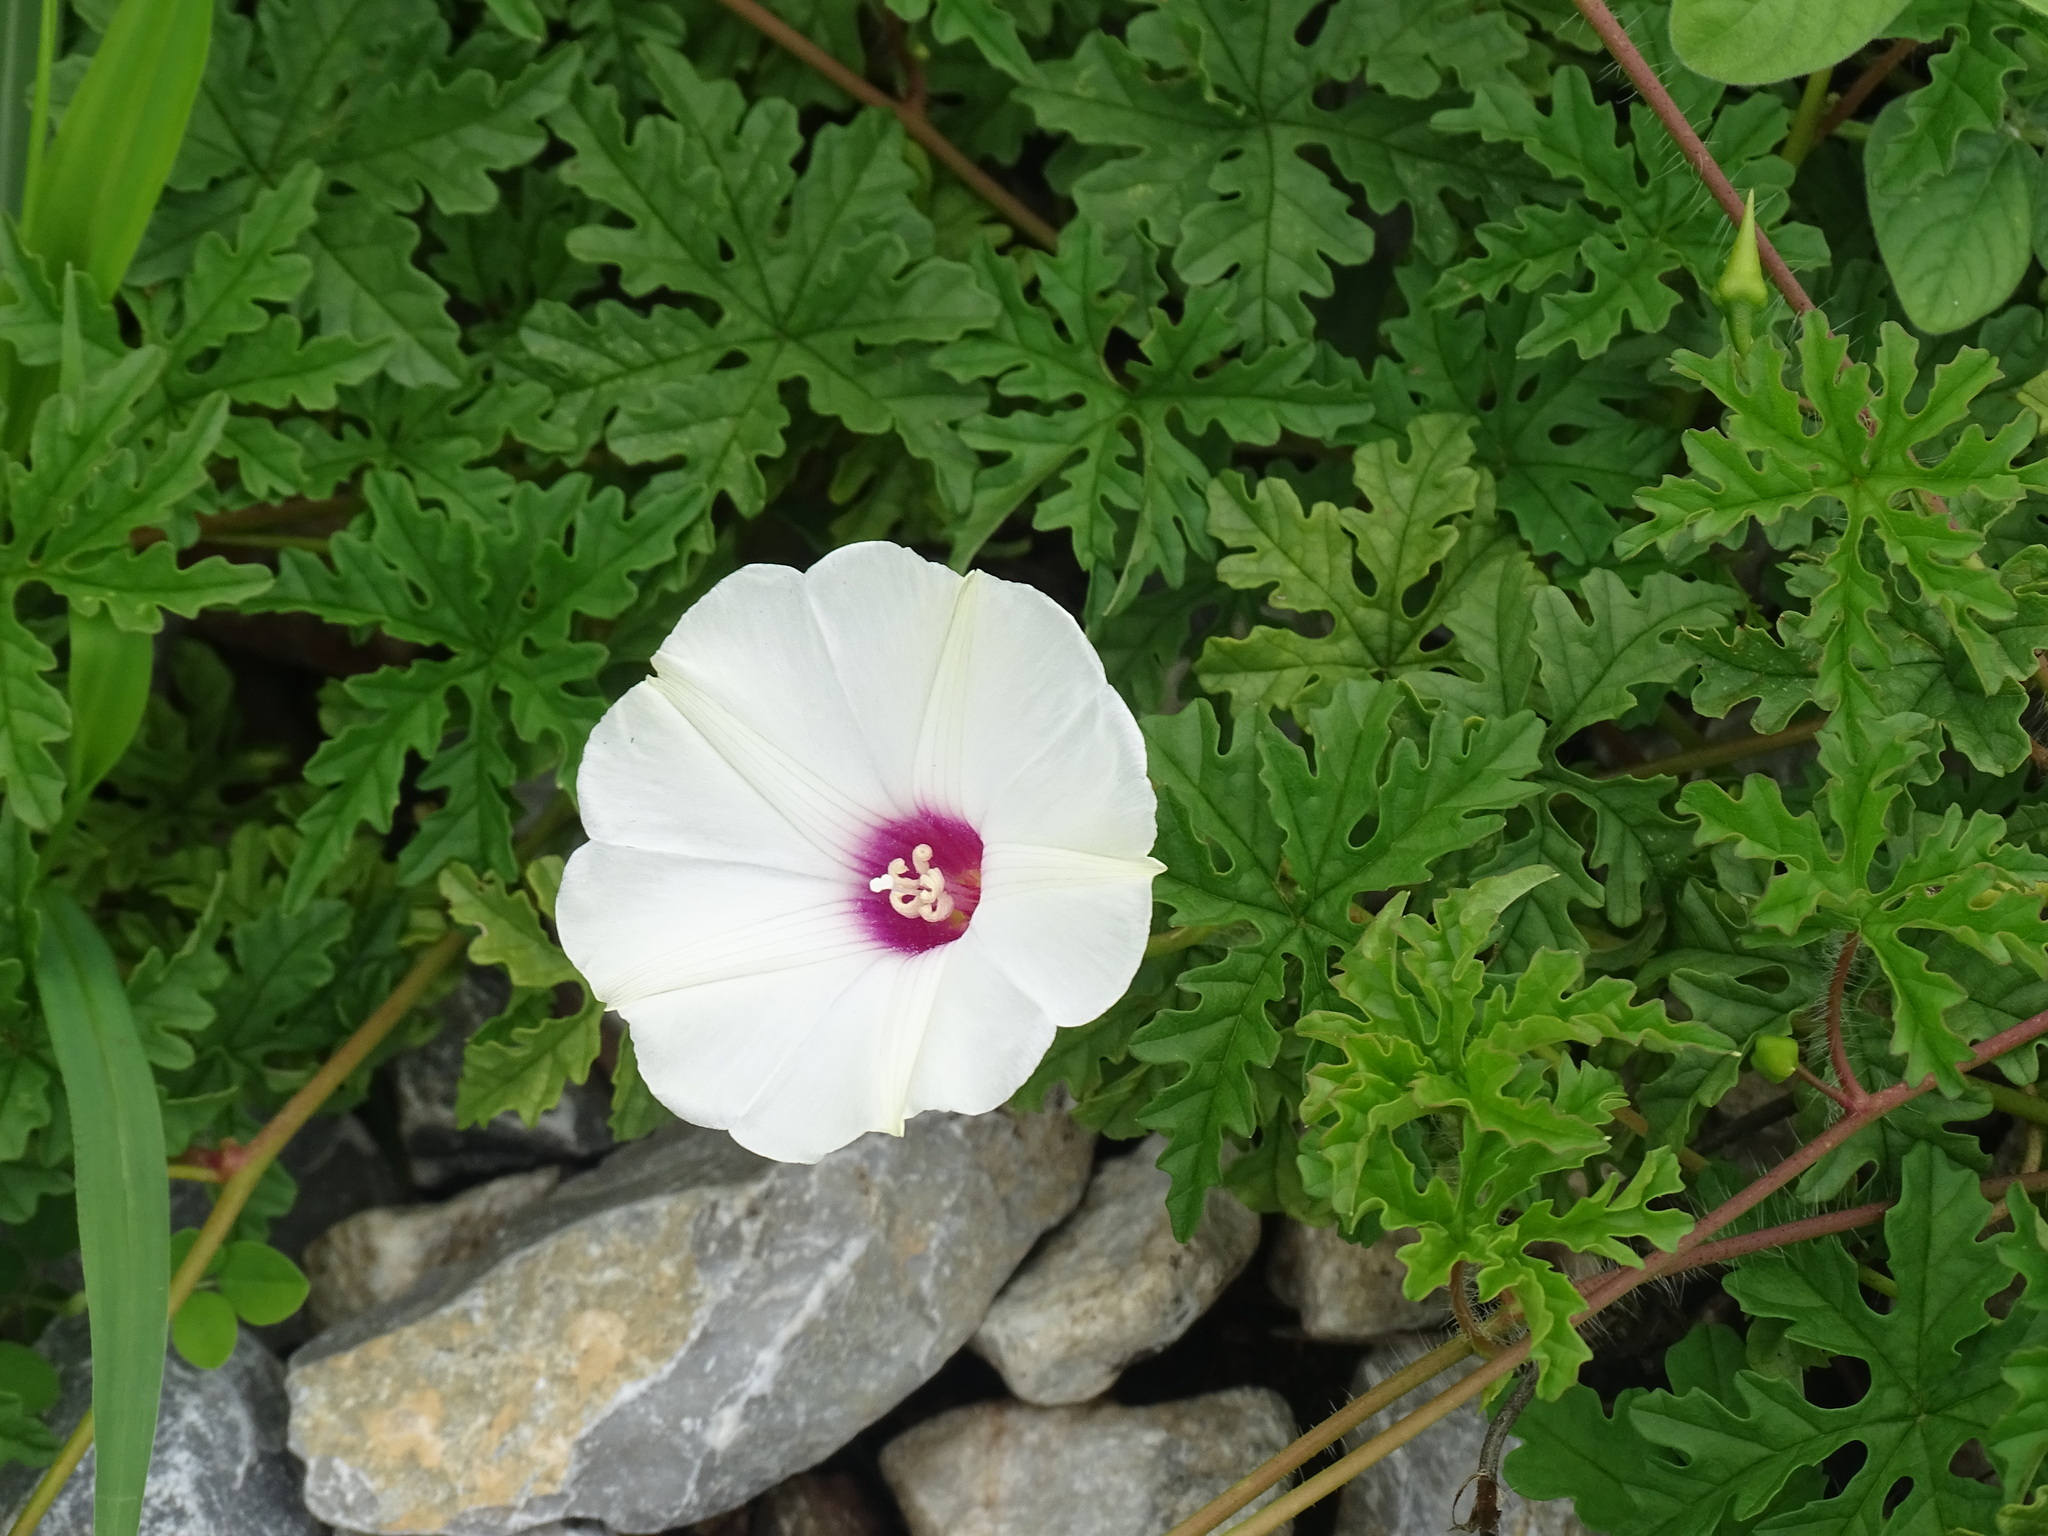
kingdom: Plantae
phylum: Tracheophyta
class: Magnoliopsida
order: Solanales
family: Convolvulaceae
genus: Distimake
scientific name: Distimake dissectus
